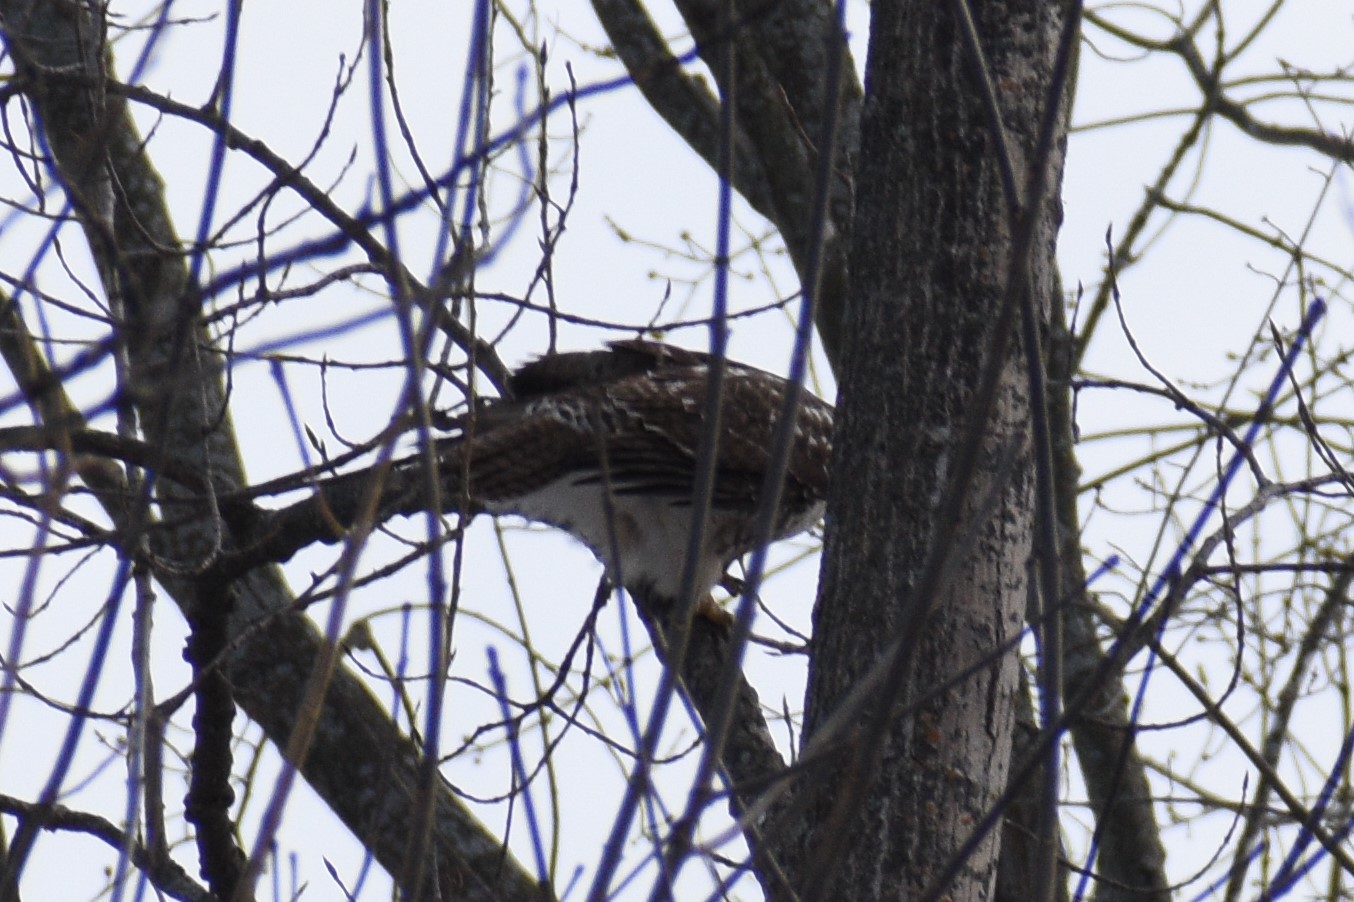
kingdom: Animalia
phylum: Chordata
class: Aves
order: Accipitriformes
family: Accipitridae
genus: Buteo
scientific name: Buteo jamaicensis
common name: Red-tailed hawk
